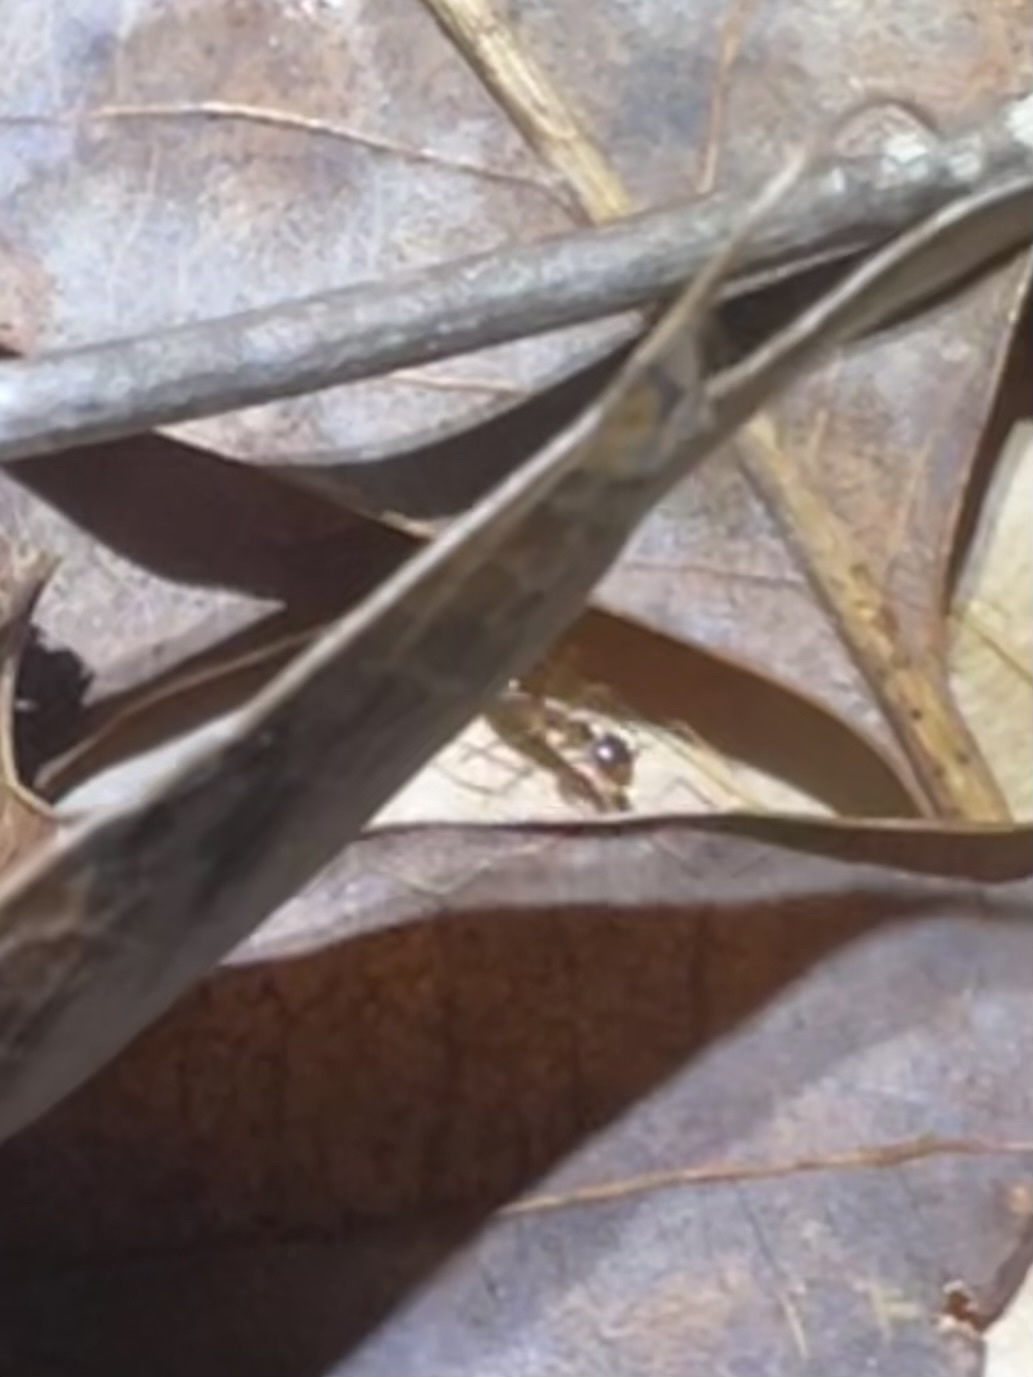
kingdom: Animalia
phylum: Arthropoda
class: Insecta
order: Hymenoptera
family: Formicidae
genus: Prenolepis
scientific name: Prenolepis imparis
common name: Small honey ant
